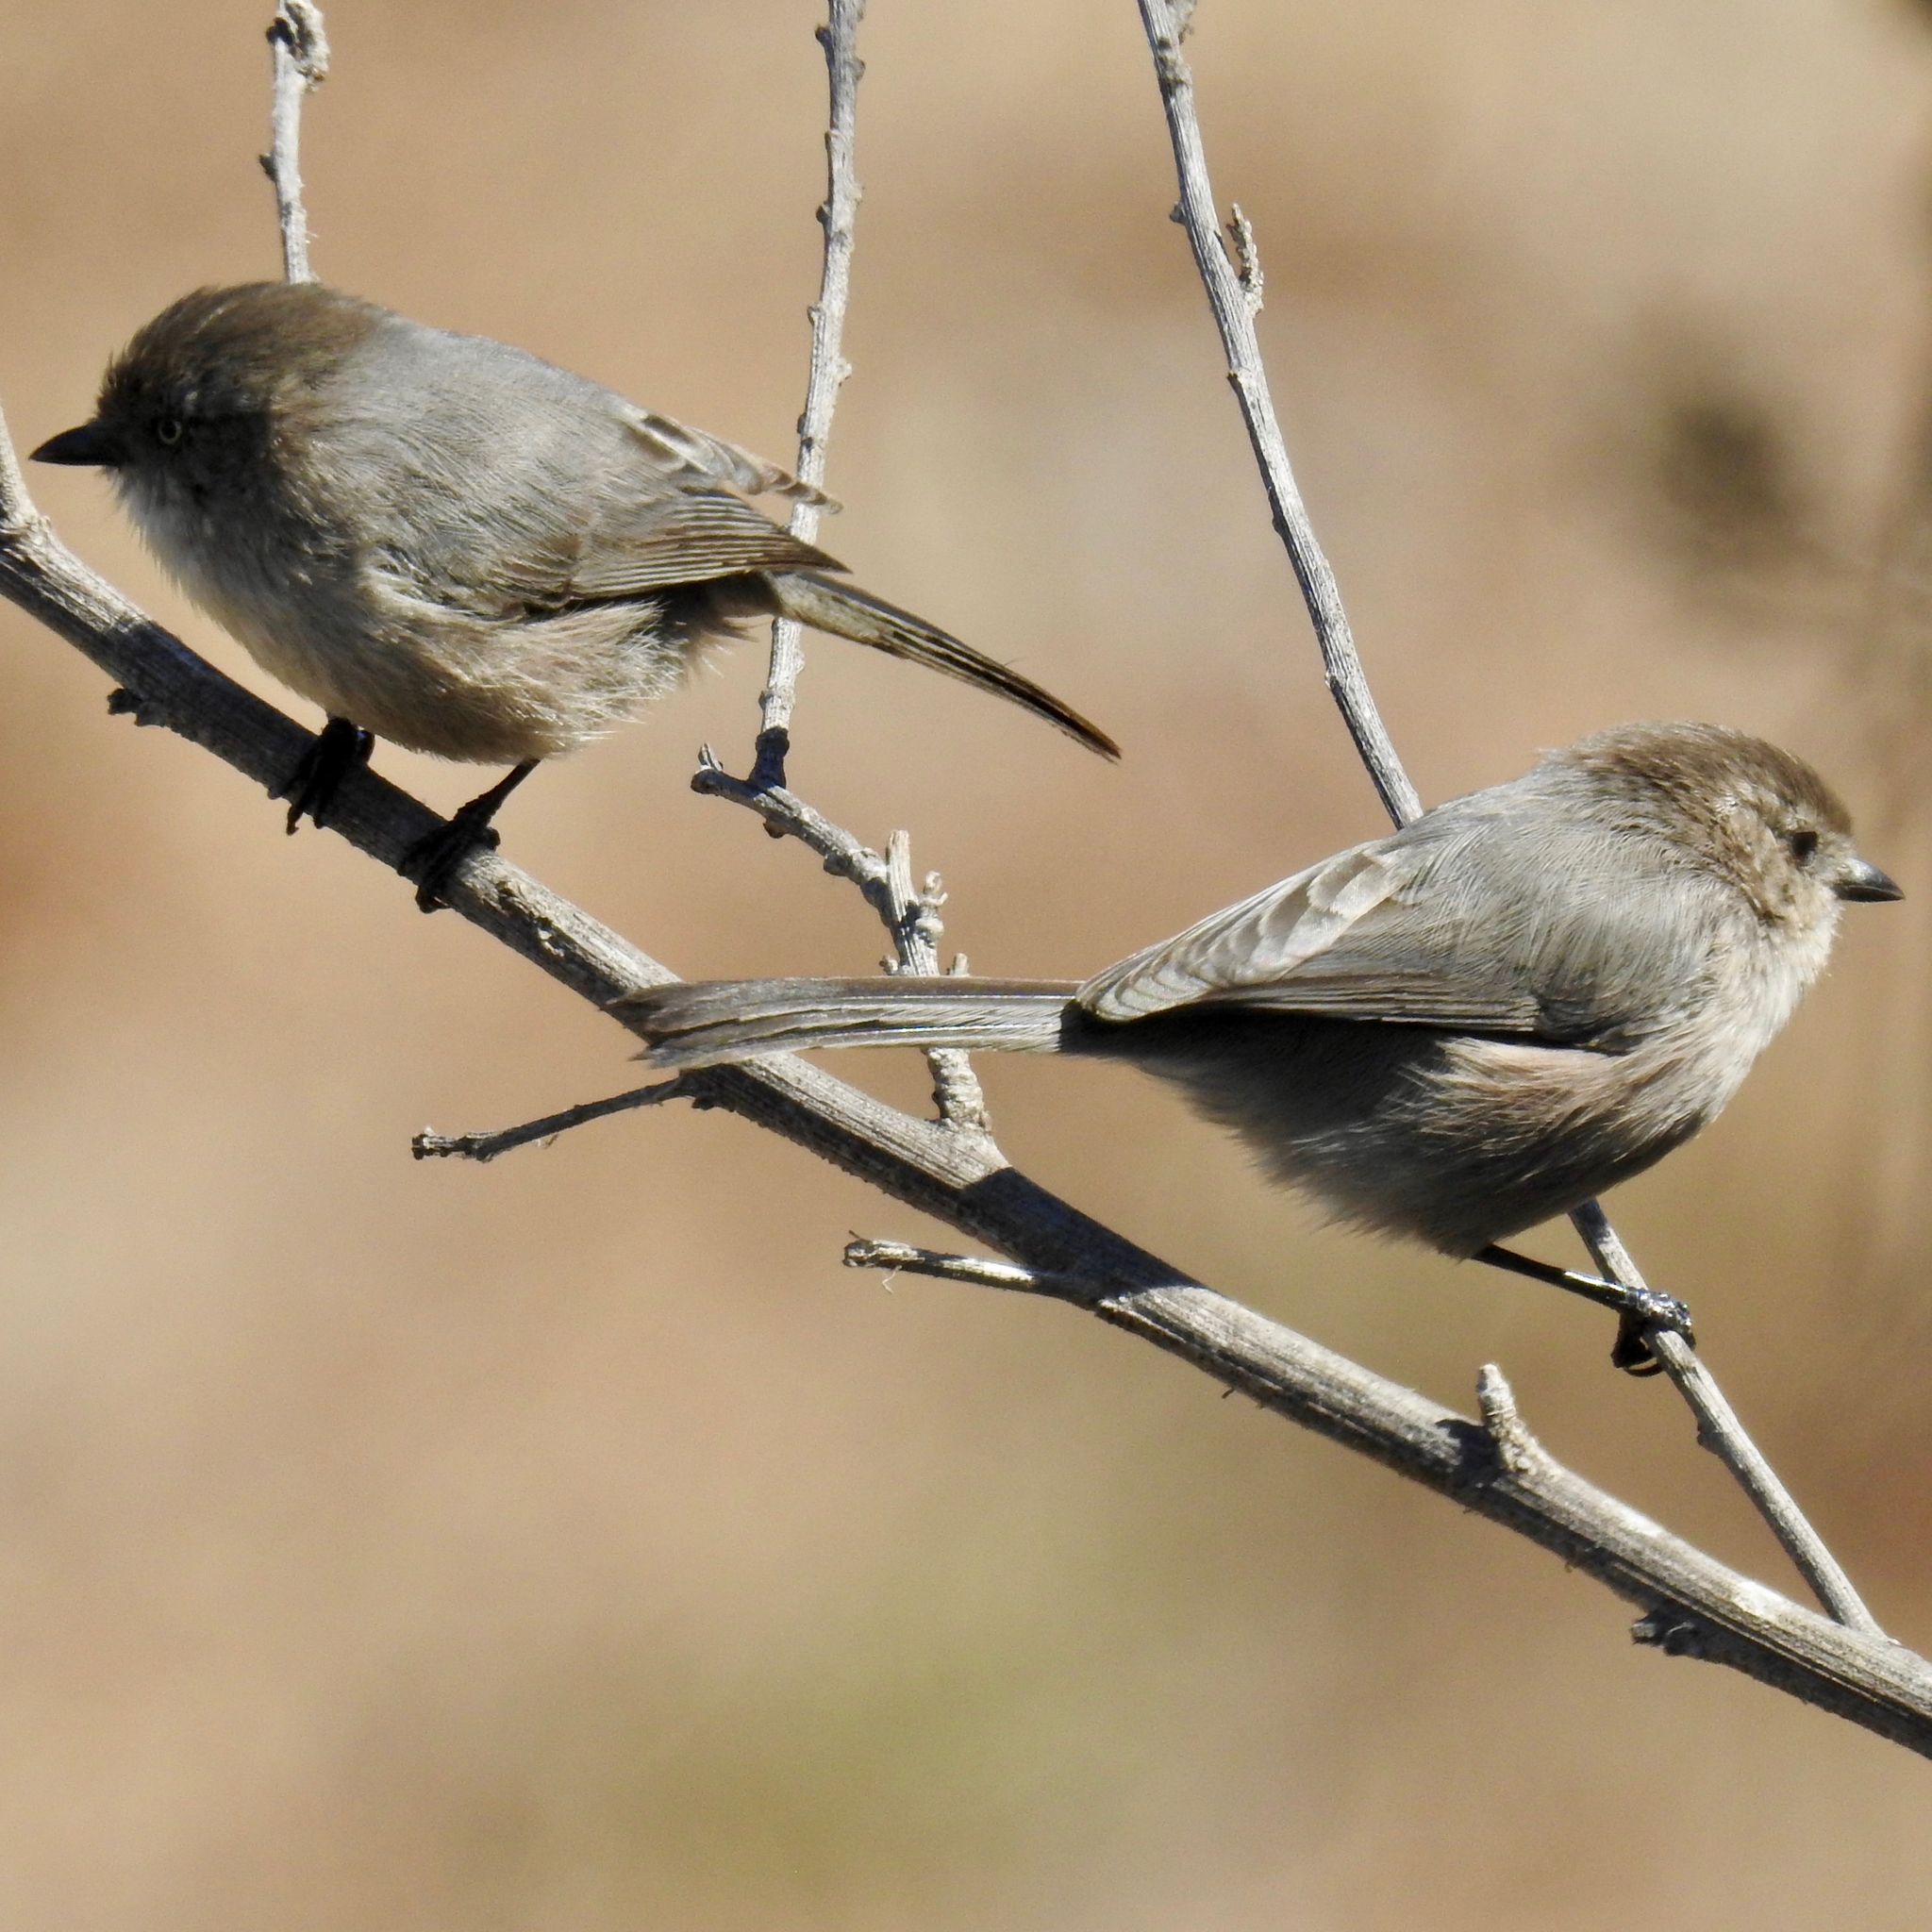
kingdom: Animalia
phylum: Chordata
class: Aves
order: Passeriformes
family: Aegithalidae
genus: Psaltriparus
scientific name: Psaltriparus minimus
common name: American bushtit
